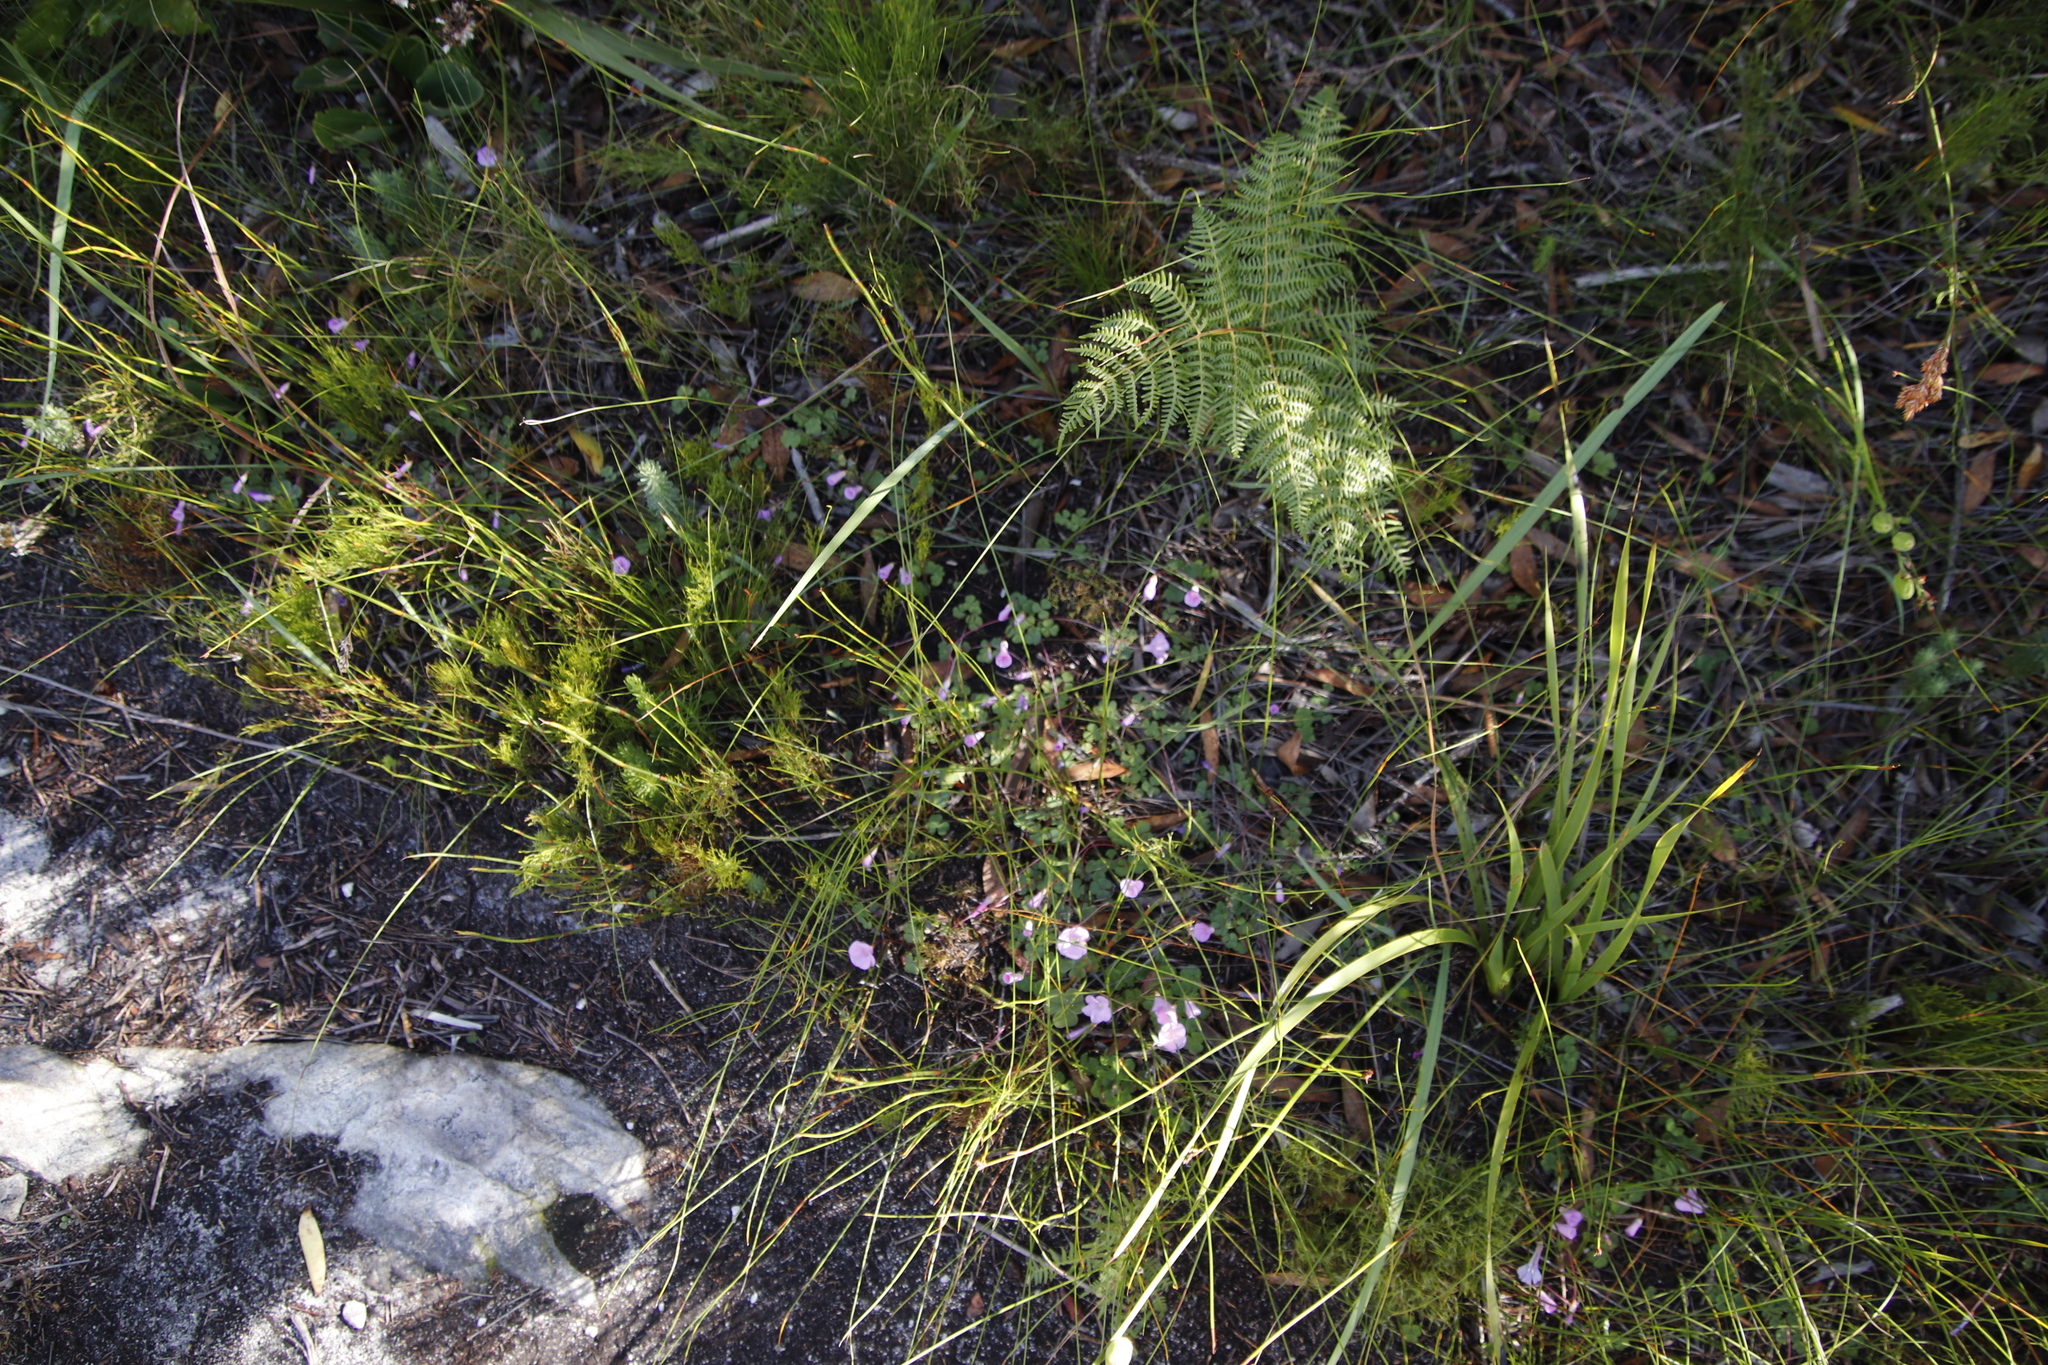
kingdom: Plantae
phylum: Tracheophyta
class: Magnoliopsida
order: Oxalidales
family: Oxalidaceae
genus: Oxalis
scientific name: Oxalis commutata
